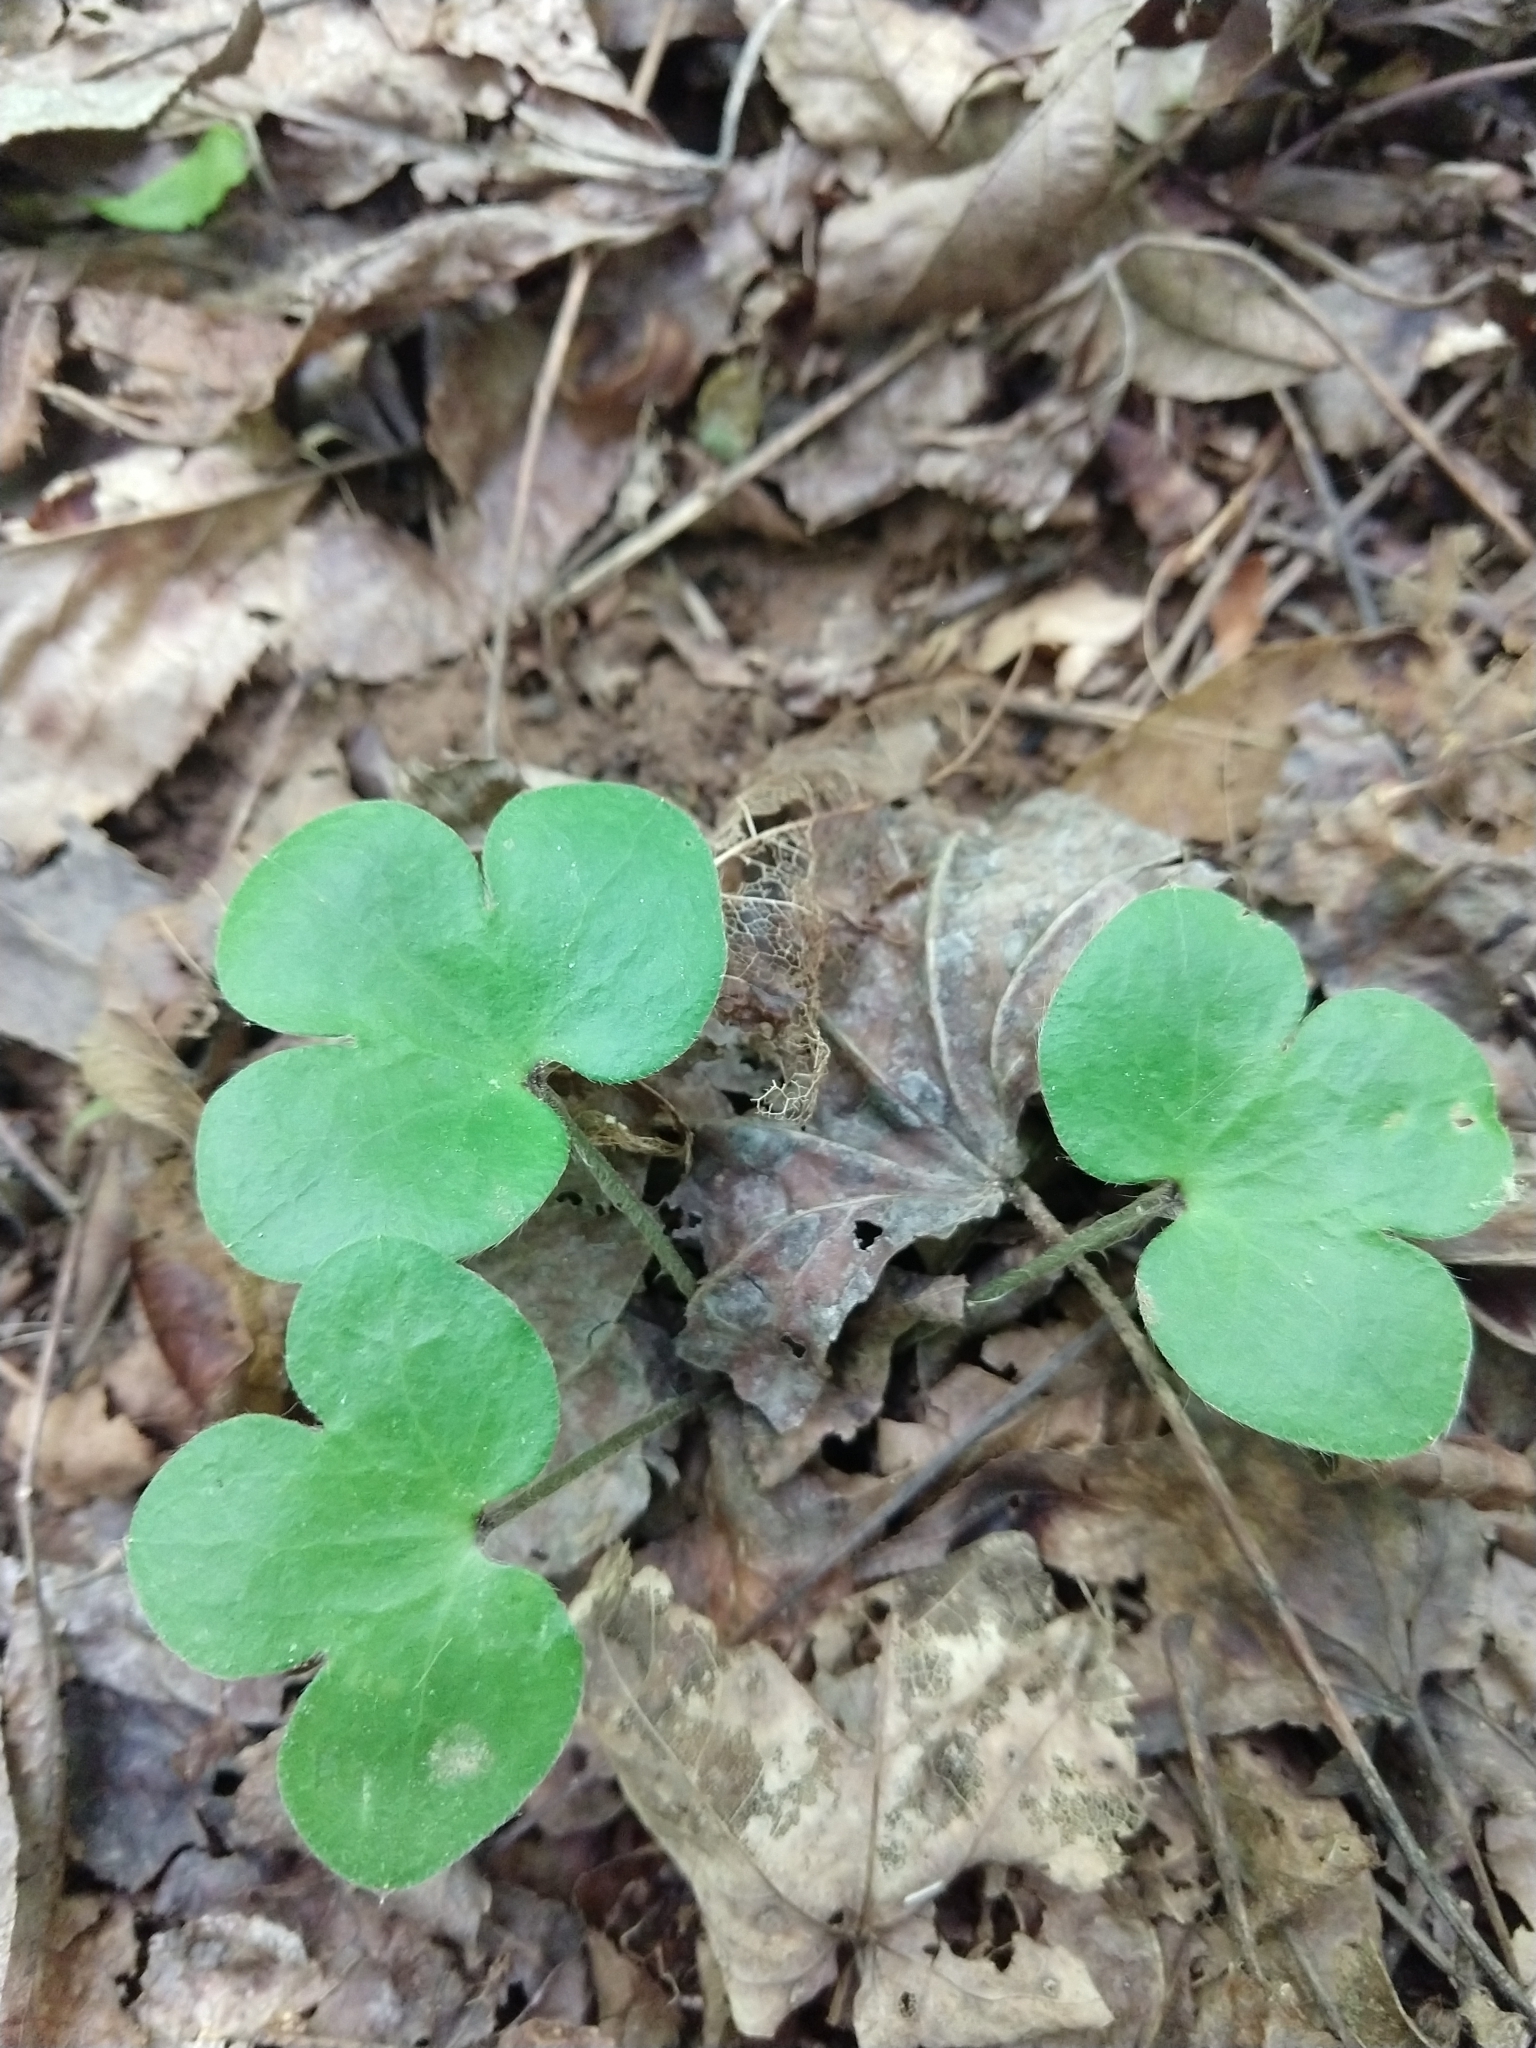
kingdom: Plantae
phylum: Tracheophyta
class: Magnoliopsida
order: Ranunculales
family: Ranunculaceae
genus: Hepatica
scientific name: Hepatica americana
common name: American hepatica
